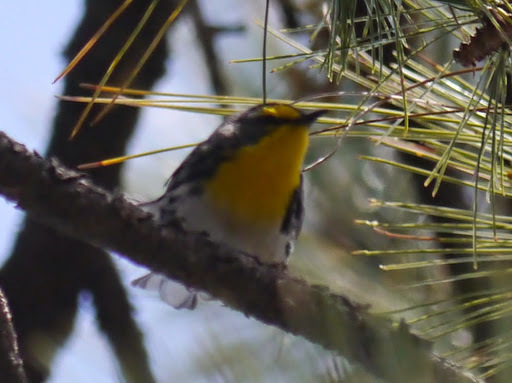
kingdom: Animalia
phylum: Chordata
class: Aves
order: Passeriformes
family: Parulidae
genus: Setophaga
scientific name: Setophaga graciae
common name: Grace's warbler
